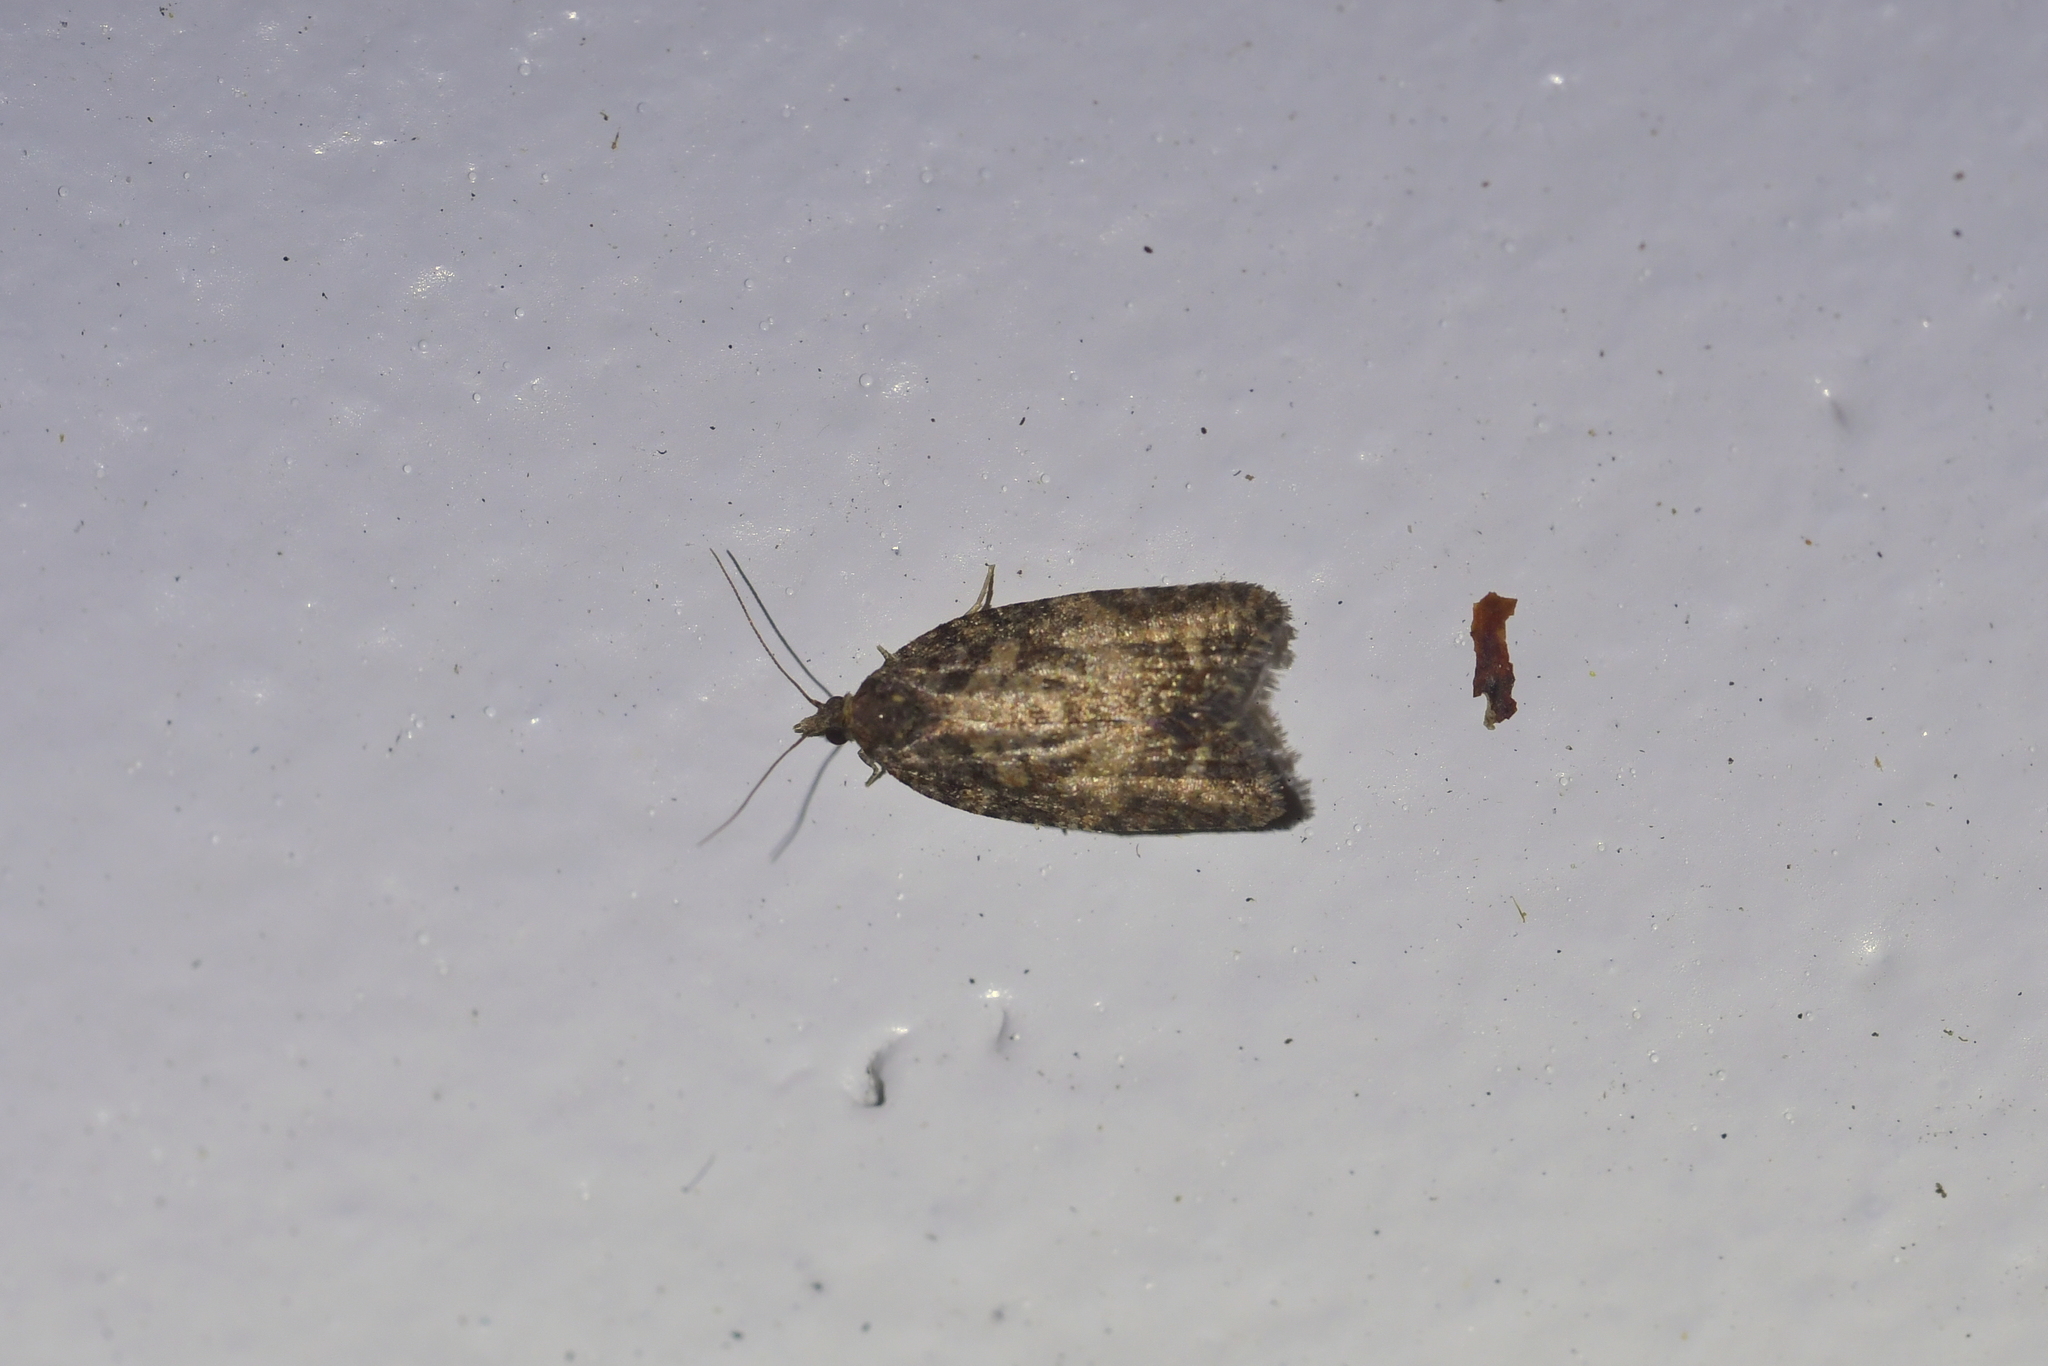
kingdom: Animalia
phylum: Arthropoda
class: Insecta
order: Lepidoptera
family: Tortricidae
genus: Capua
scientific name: Capua intractana
